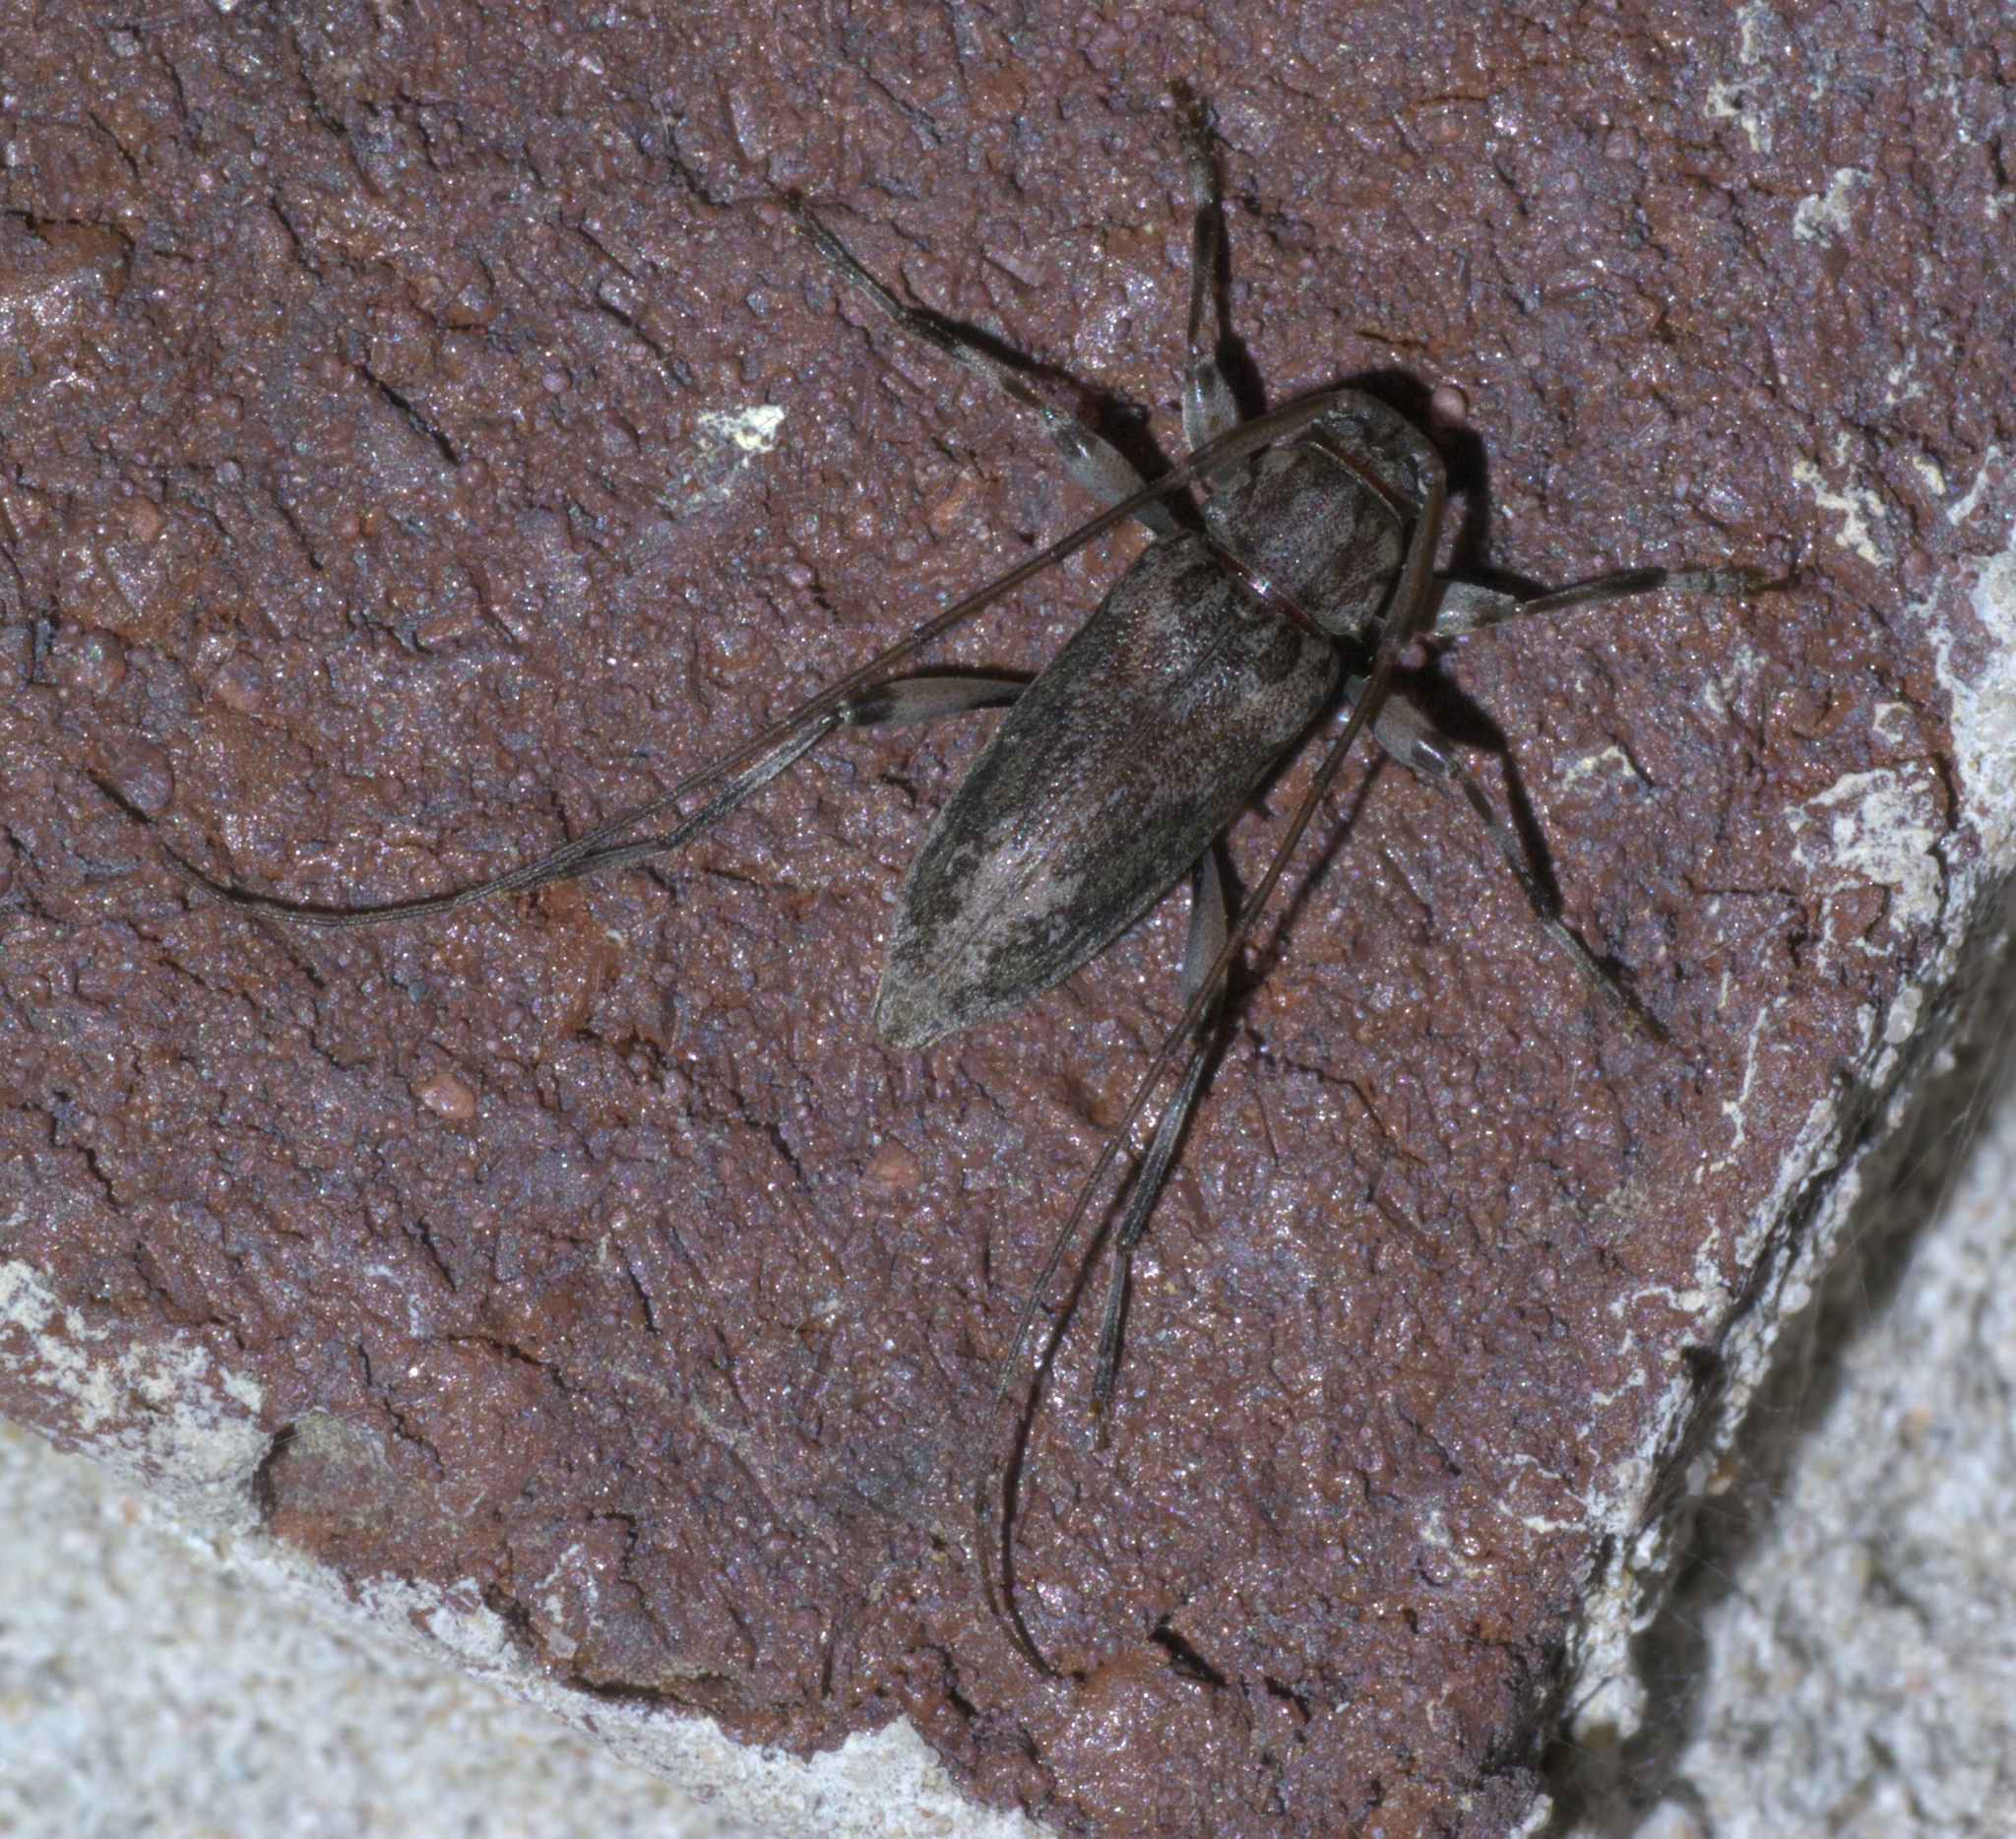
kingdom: Animalia
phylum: Arthropoda
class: Insecta
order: Coleoptera
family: Cerambycidae
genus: Lepturges
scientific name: Lepturges confluens
